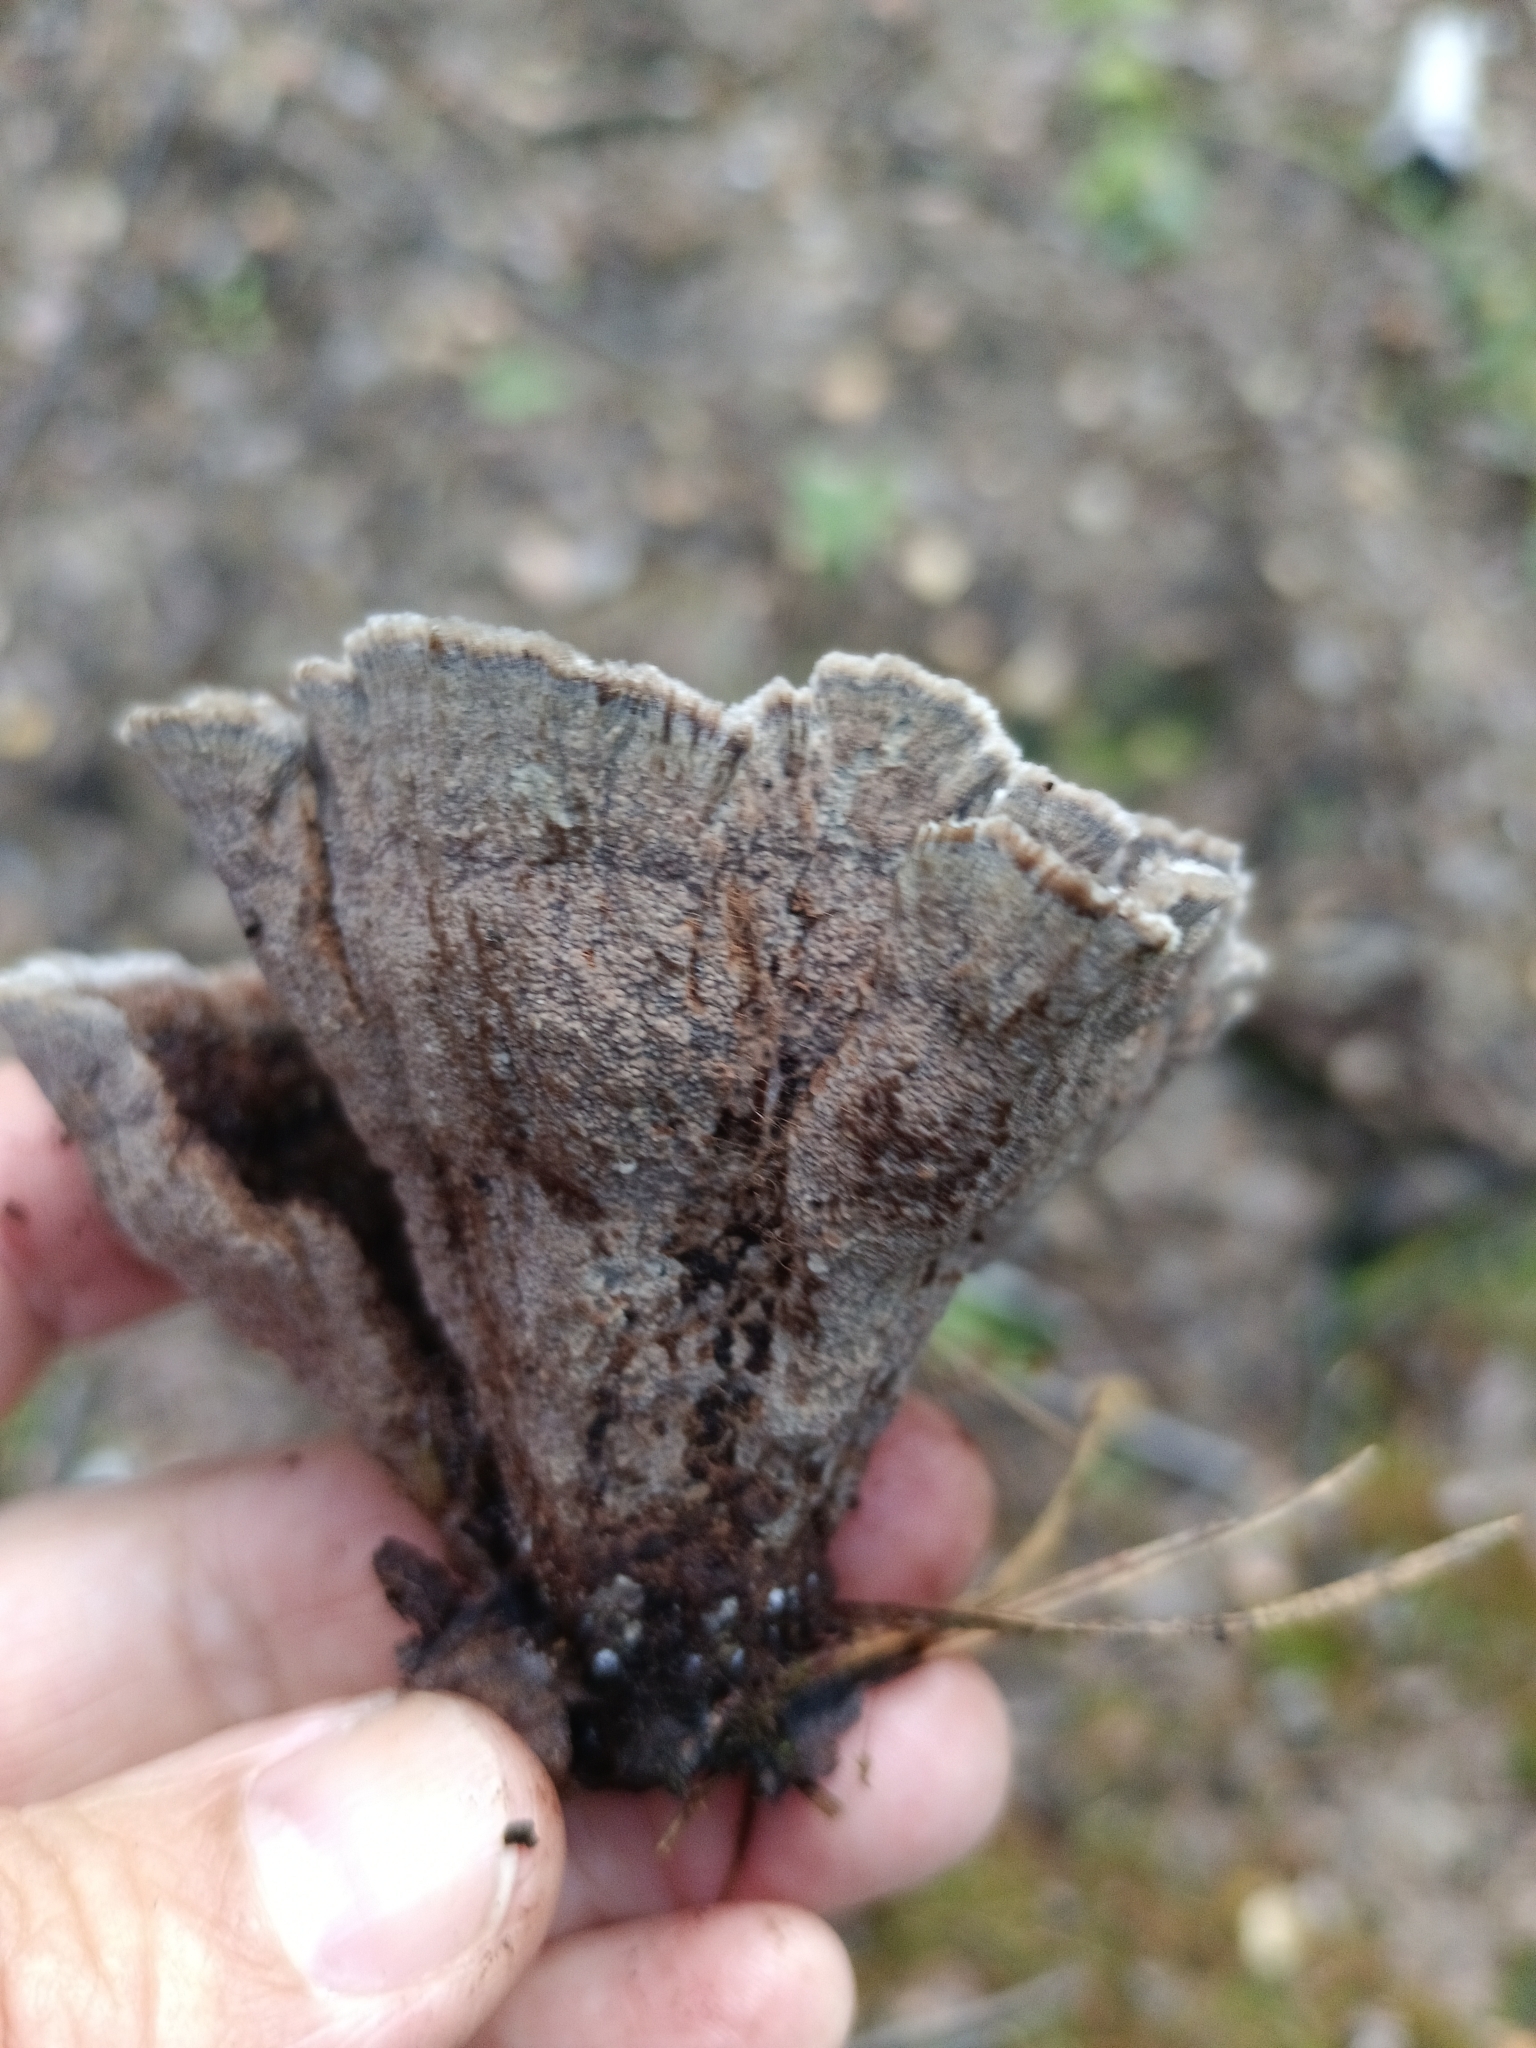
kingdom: Fungi
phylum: Basidiomycota
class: Agaricomycetes
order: Thelephorales
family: Thelephoraceae
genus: Thelephora
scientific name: Thelephora terrestris
